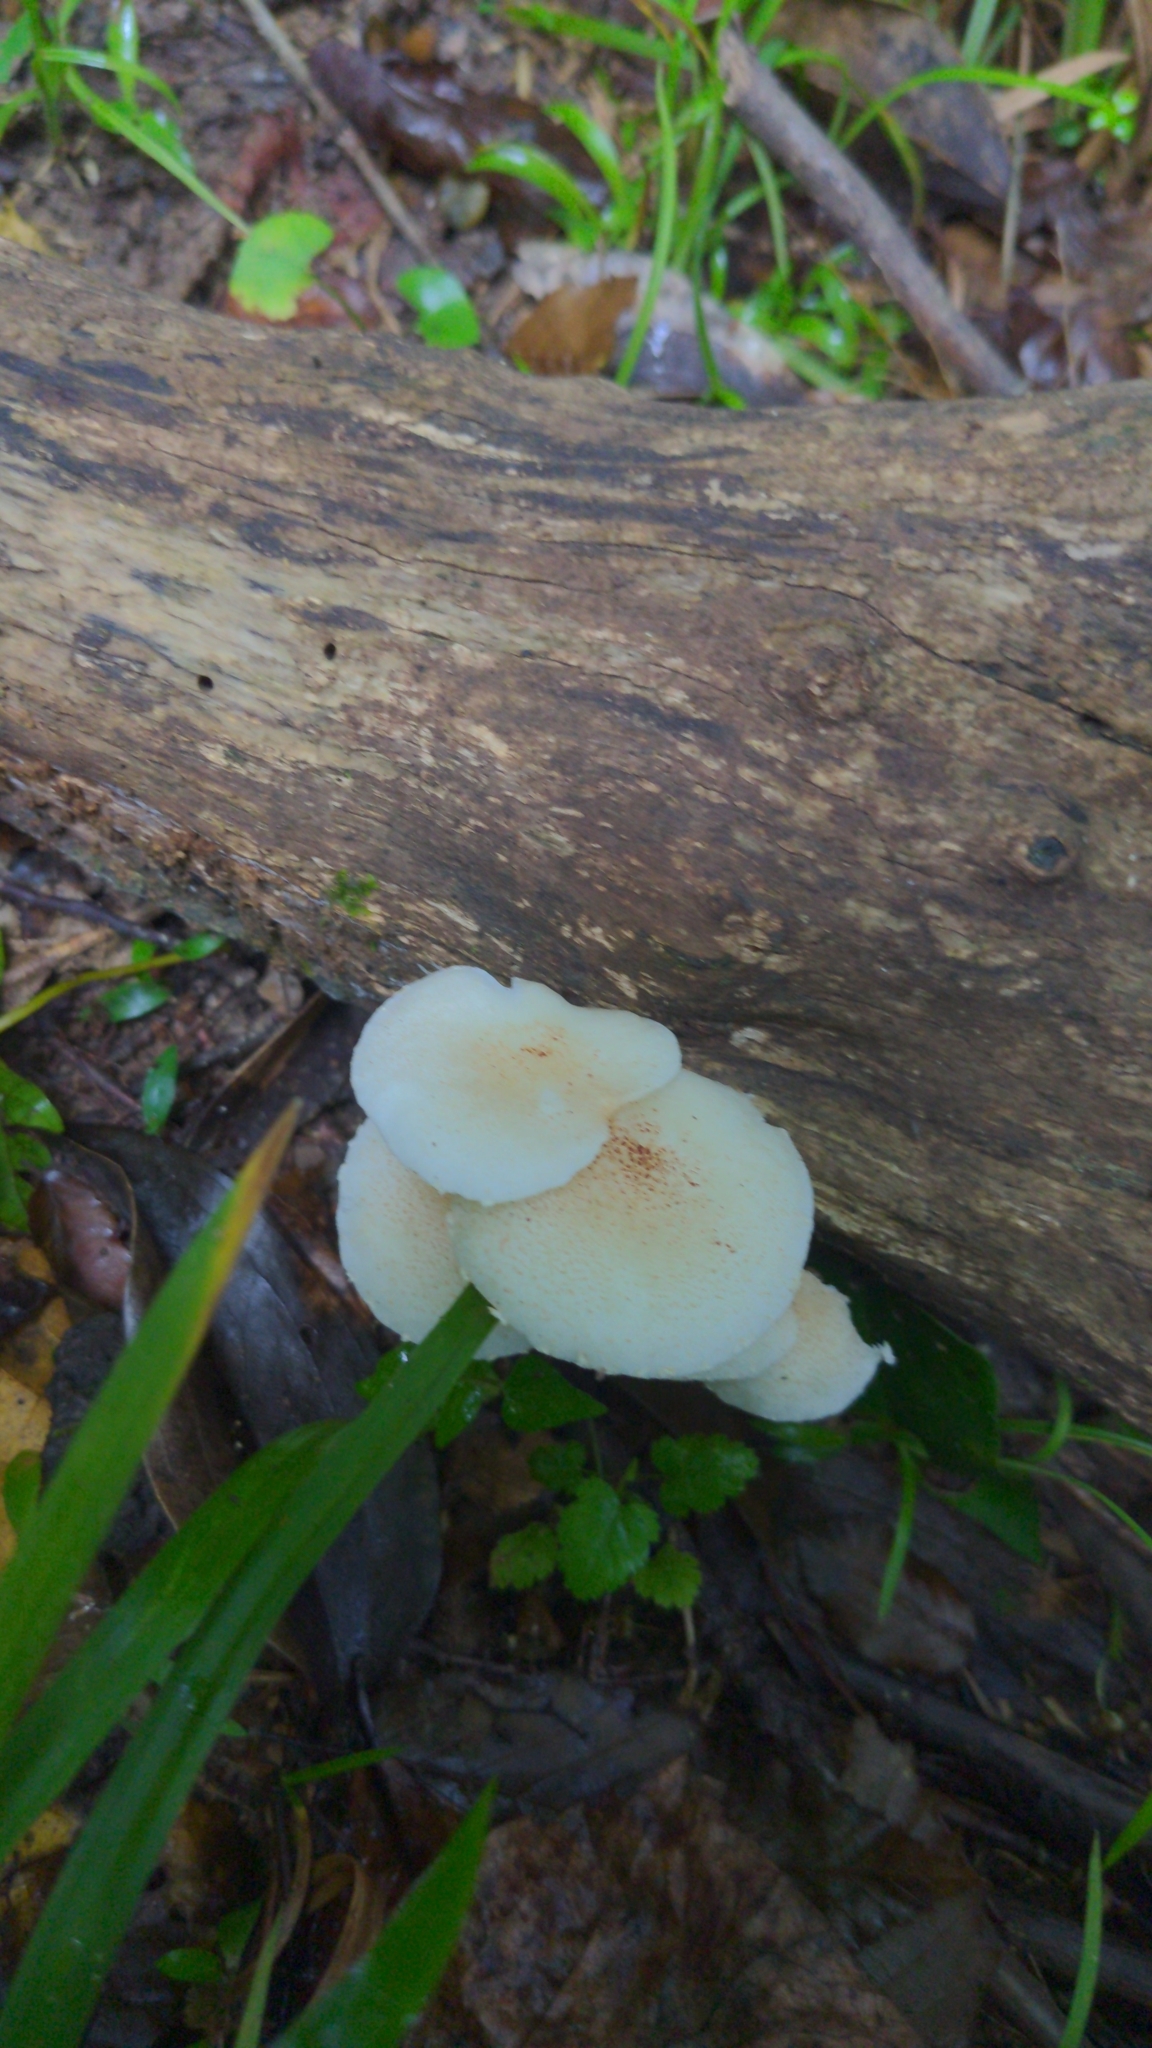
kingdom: Fungi
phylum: Basidiomycota
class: Agaricomycetes
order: Agaricales
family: Agaricaceae
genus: Ripartitella
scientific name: Ripartitella brasiliensis
